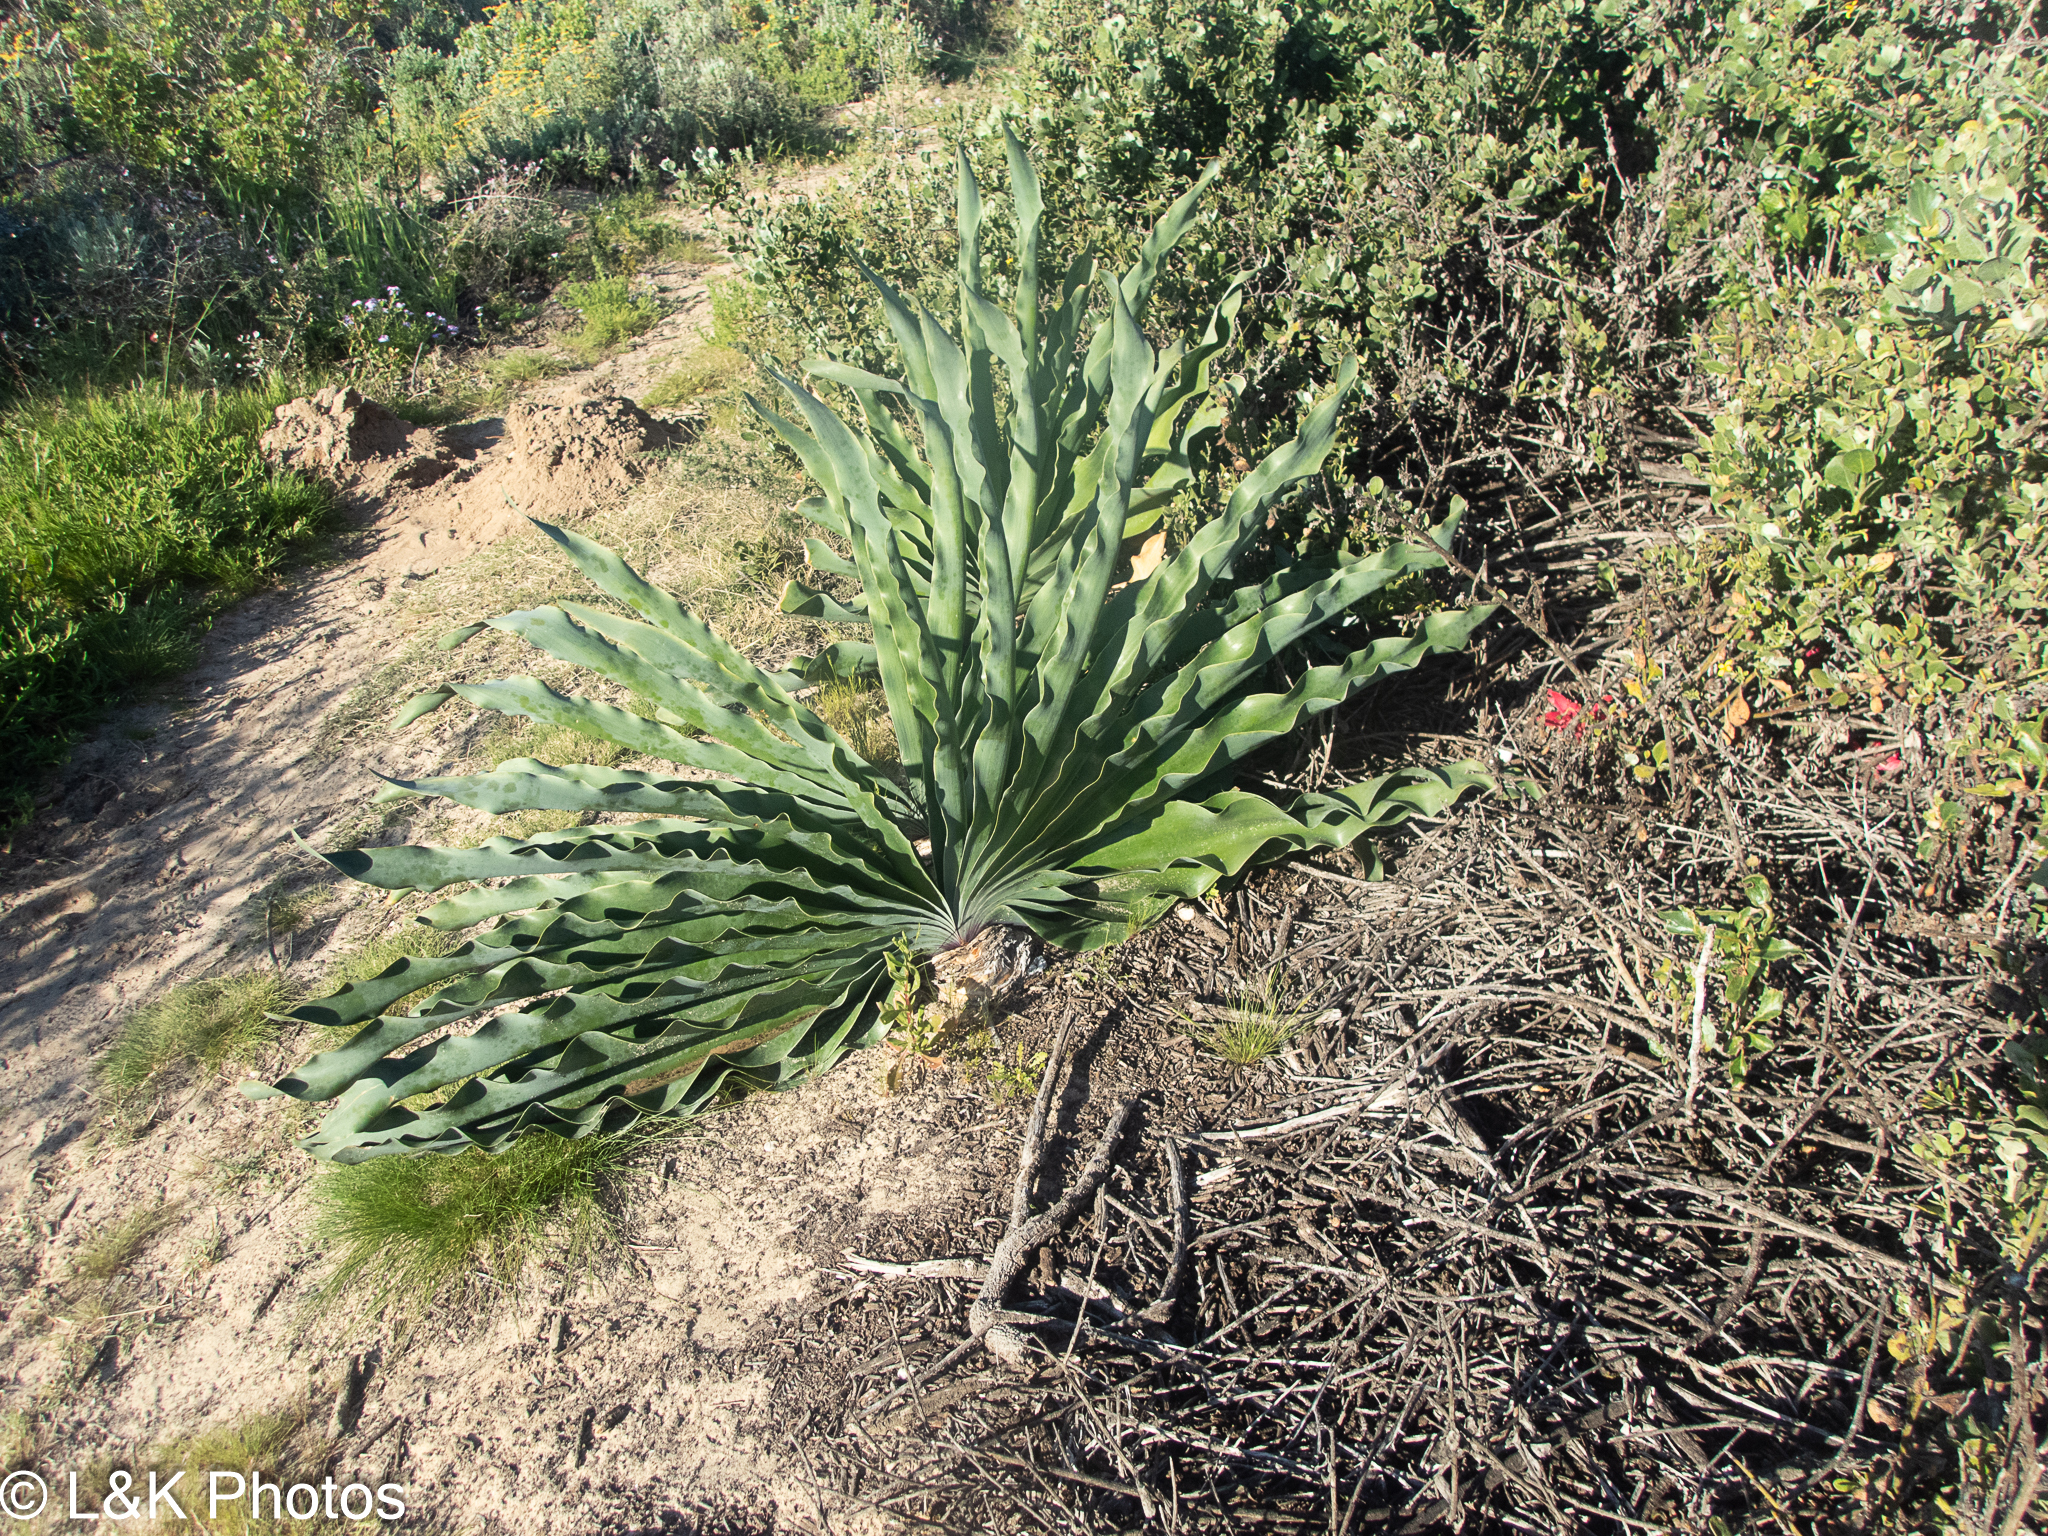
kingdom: Plantae
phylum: Tracheophyta
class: Liliopsida
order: Asparagales
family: Amaryllidaceae
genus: Boophone
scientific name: Boophone haemanthoides
